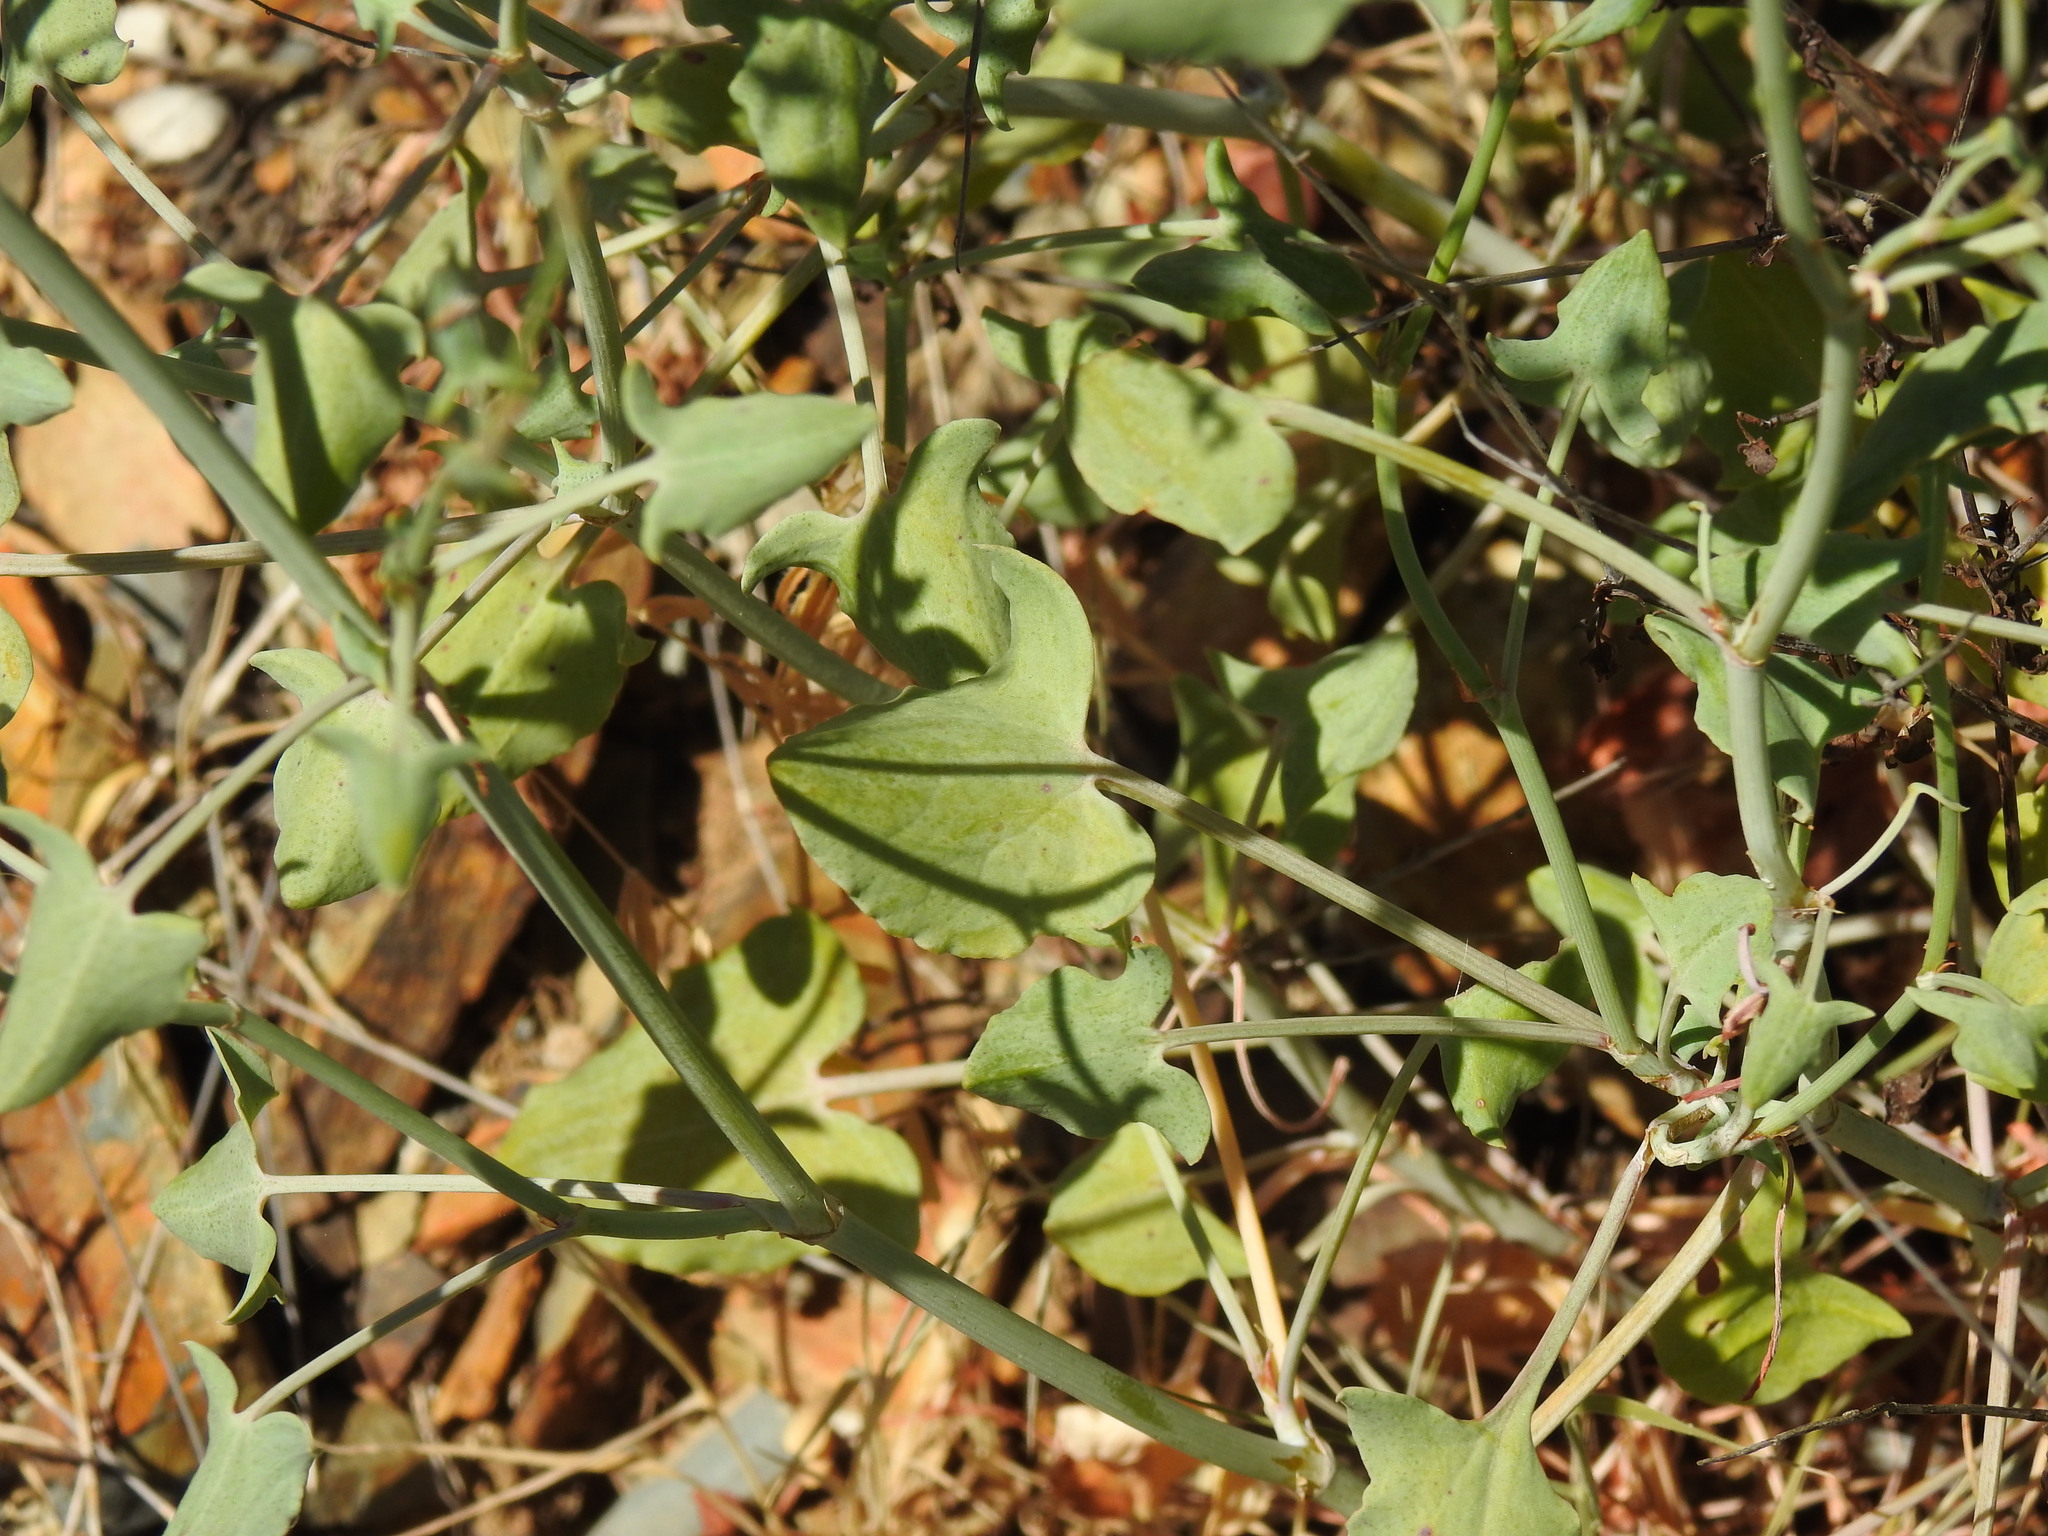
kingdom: Plantae
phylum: Tracheophyta
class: Magnoliopsida
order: Caryophyllales
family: Polygonaceae
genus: Rumex
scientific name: Rumex induratus
